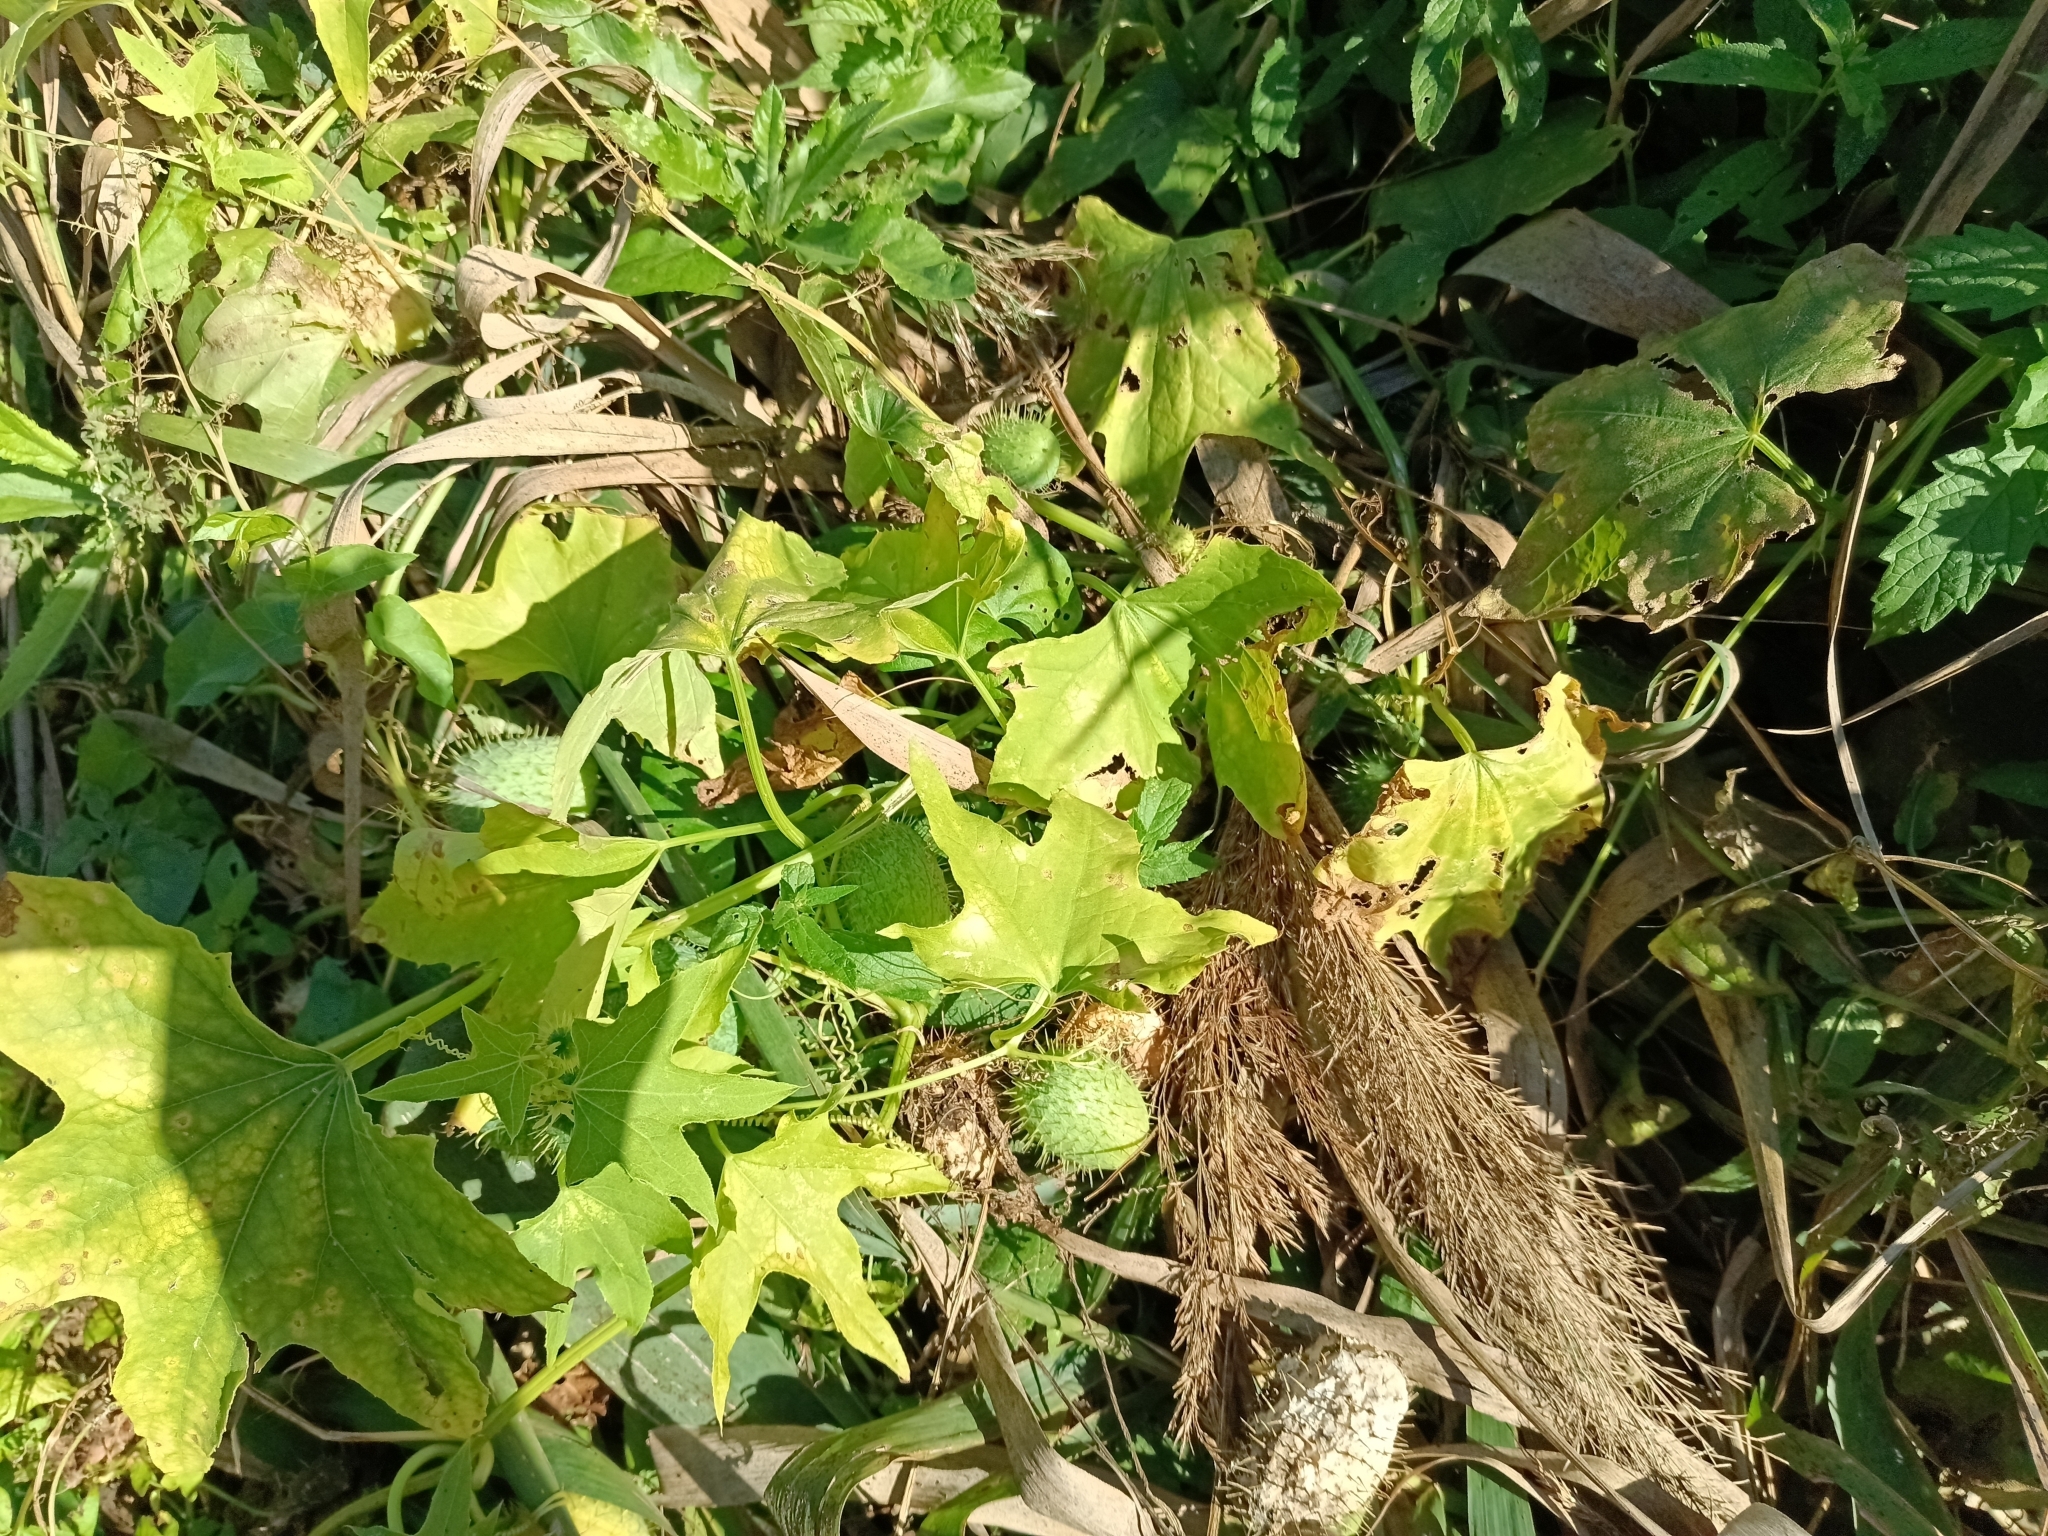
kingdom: Plantae
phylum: Tracheophyta
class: Magnoliopsida
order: Cucurbitales
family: Cucurbitaceae
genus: Echinocystis
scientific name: Echinocystis lobata
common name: Wild cucumber
